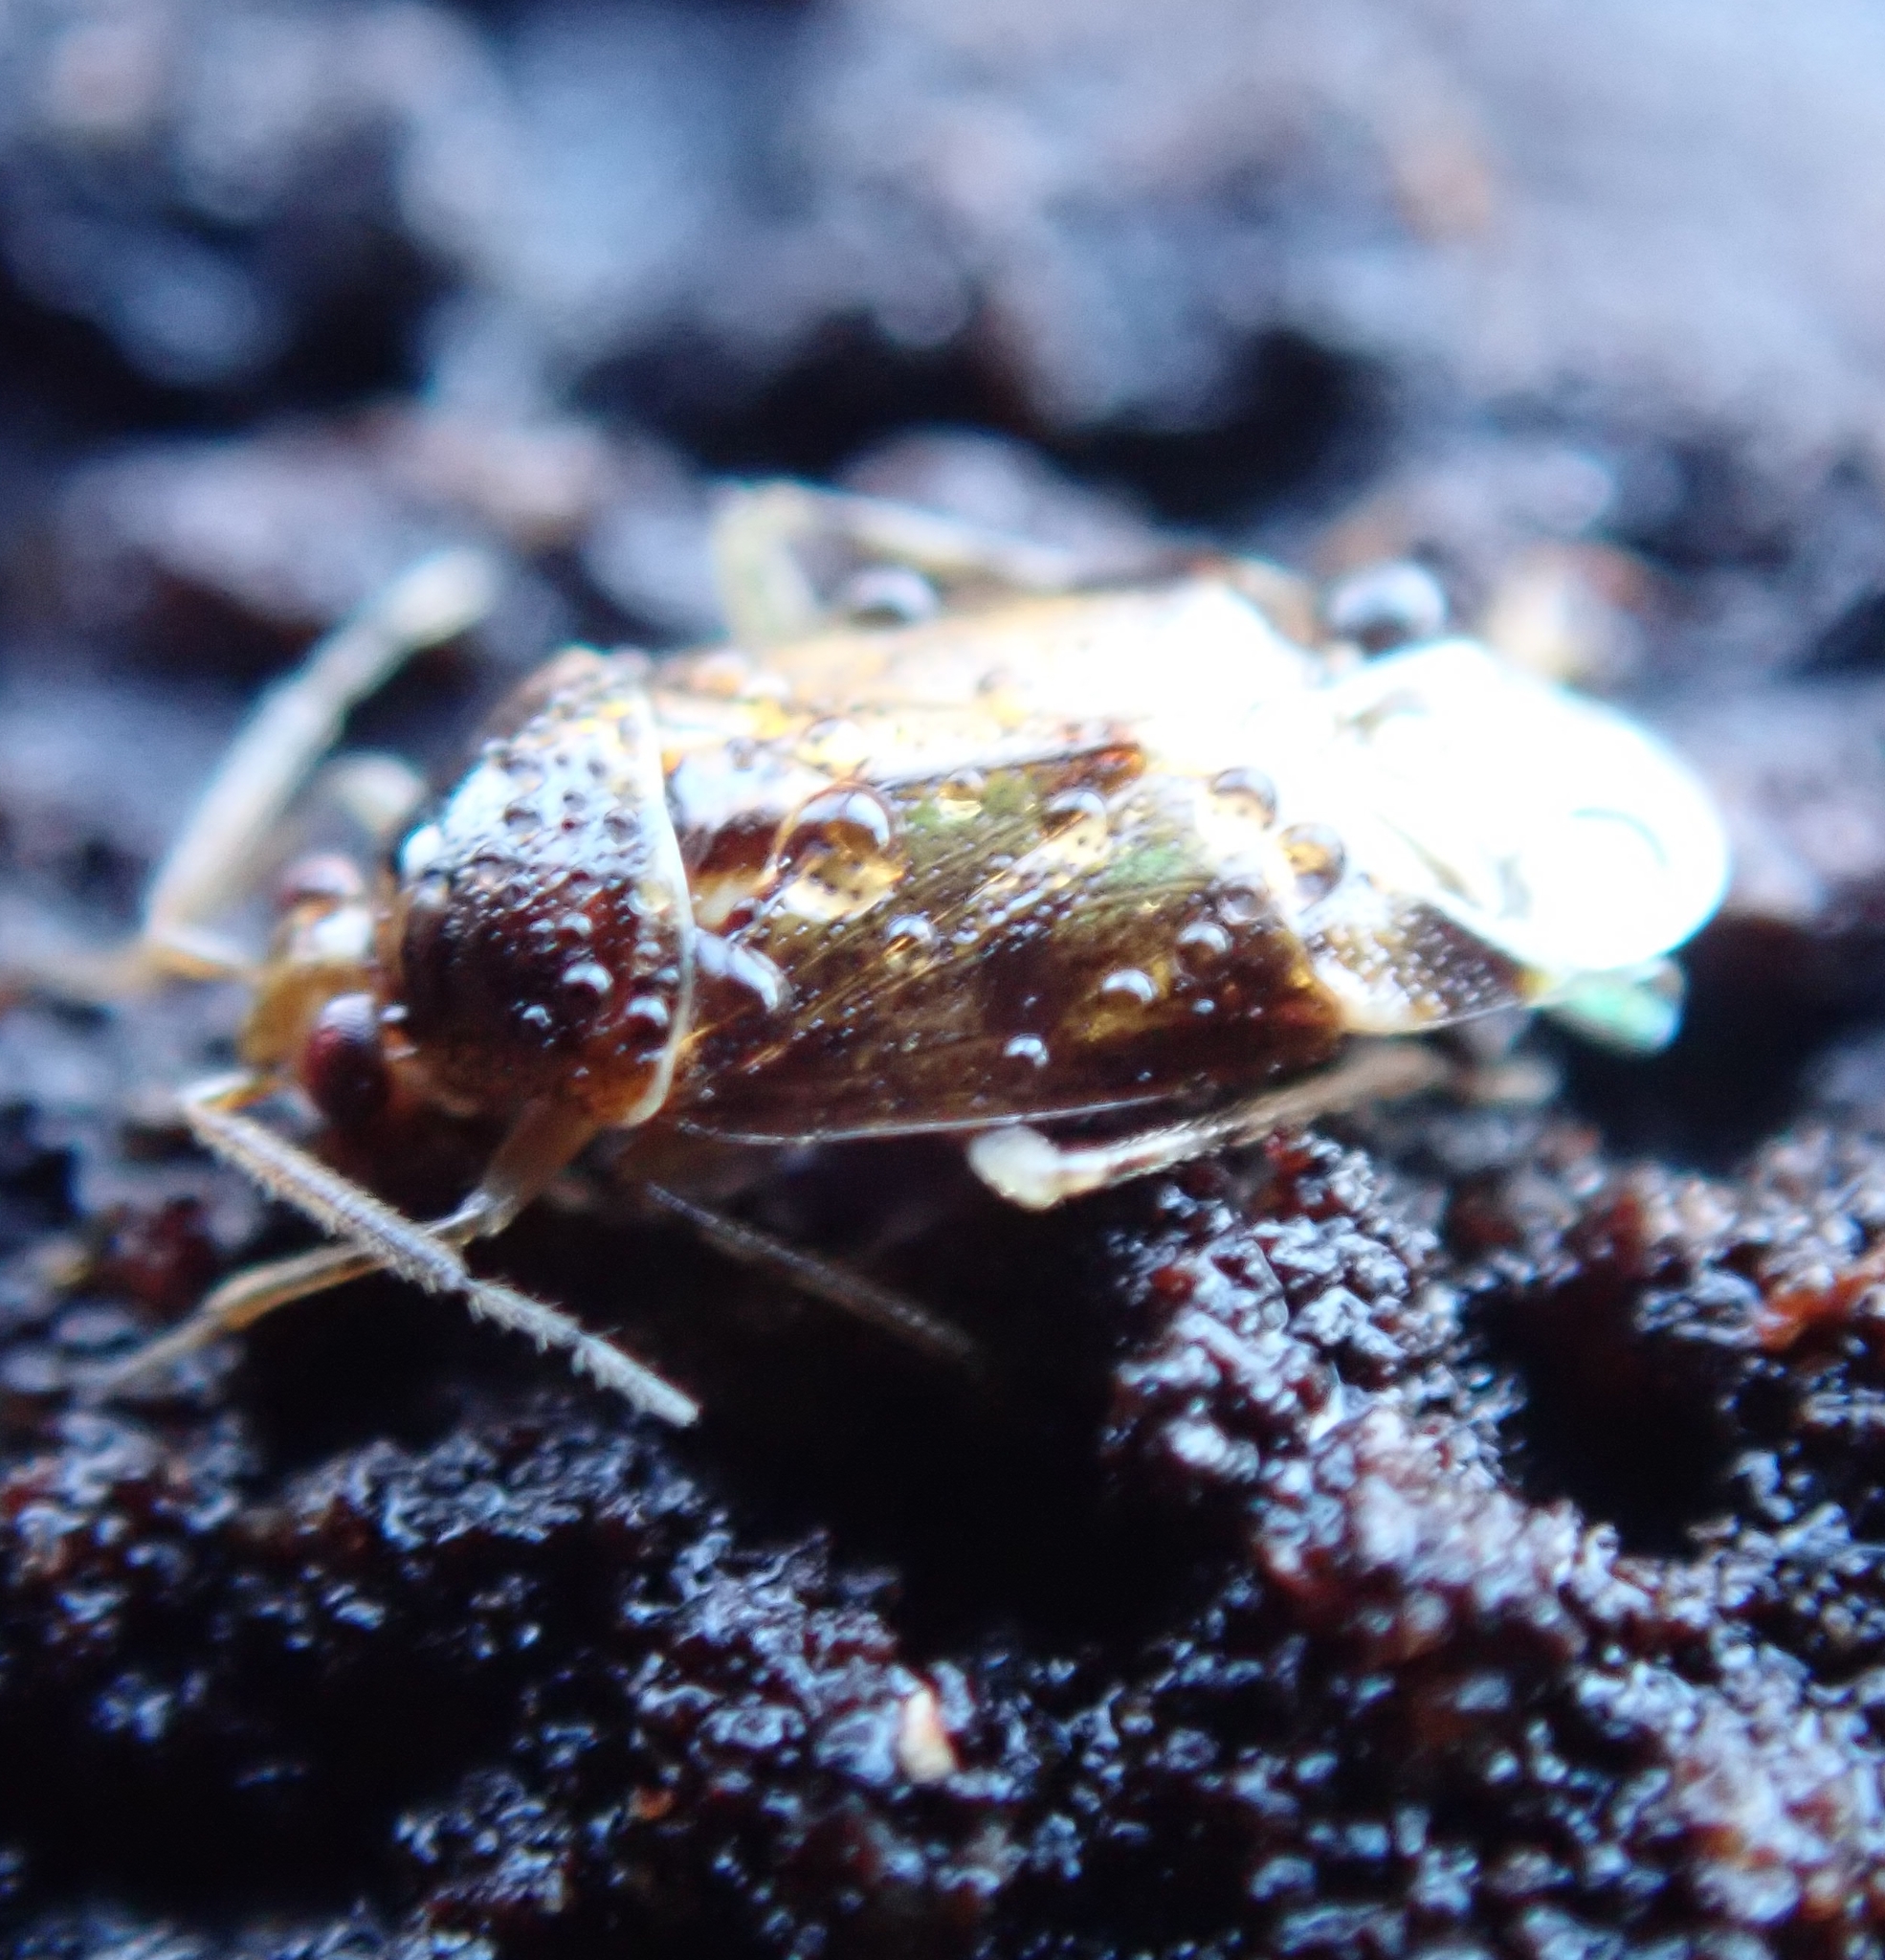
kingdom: Animalia
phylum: Arthropoda
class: Insecta
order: Hemiptera
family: Miridae
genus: Deraeocoris
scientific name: Deraeocoris lutescens
